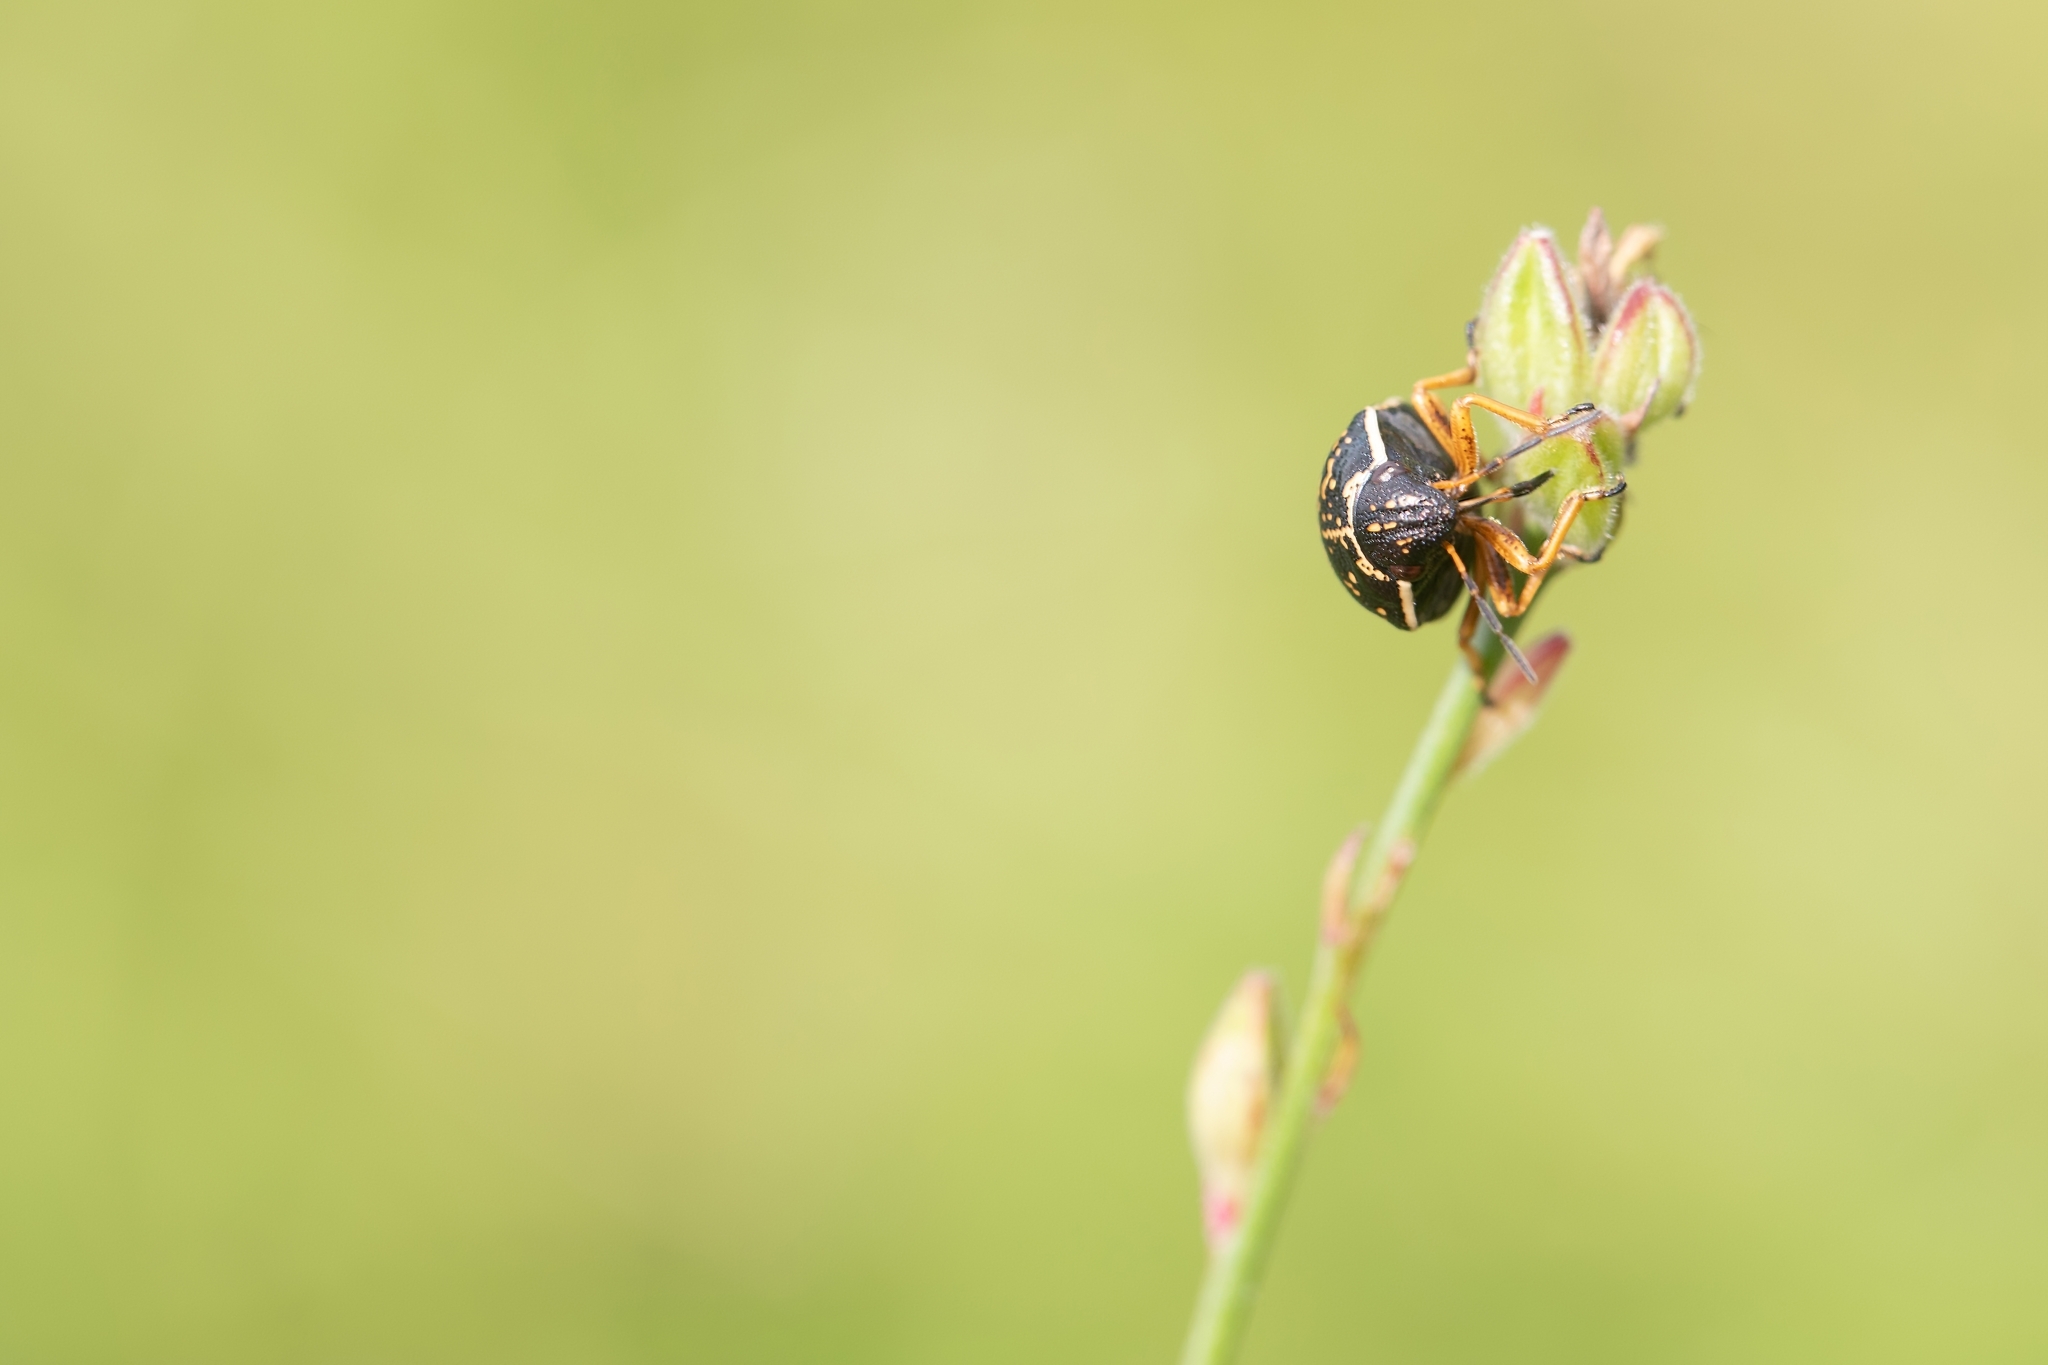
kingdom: Animalia
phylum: Arthropoda
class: Insecta
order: Hemiptera
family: Scutelleridae
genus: Orsilochides
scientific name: Orsilochides guttata
